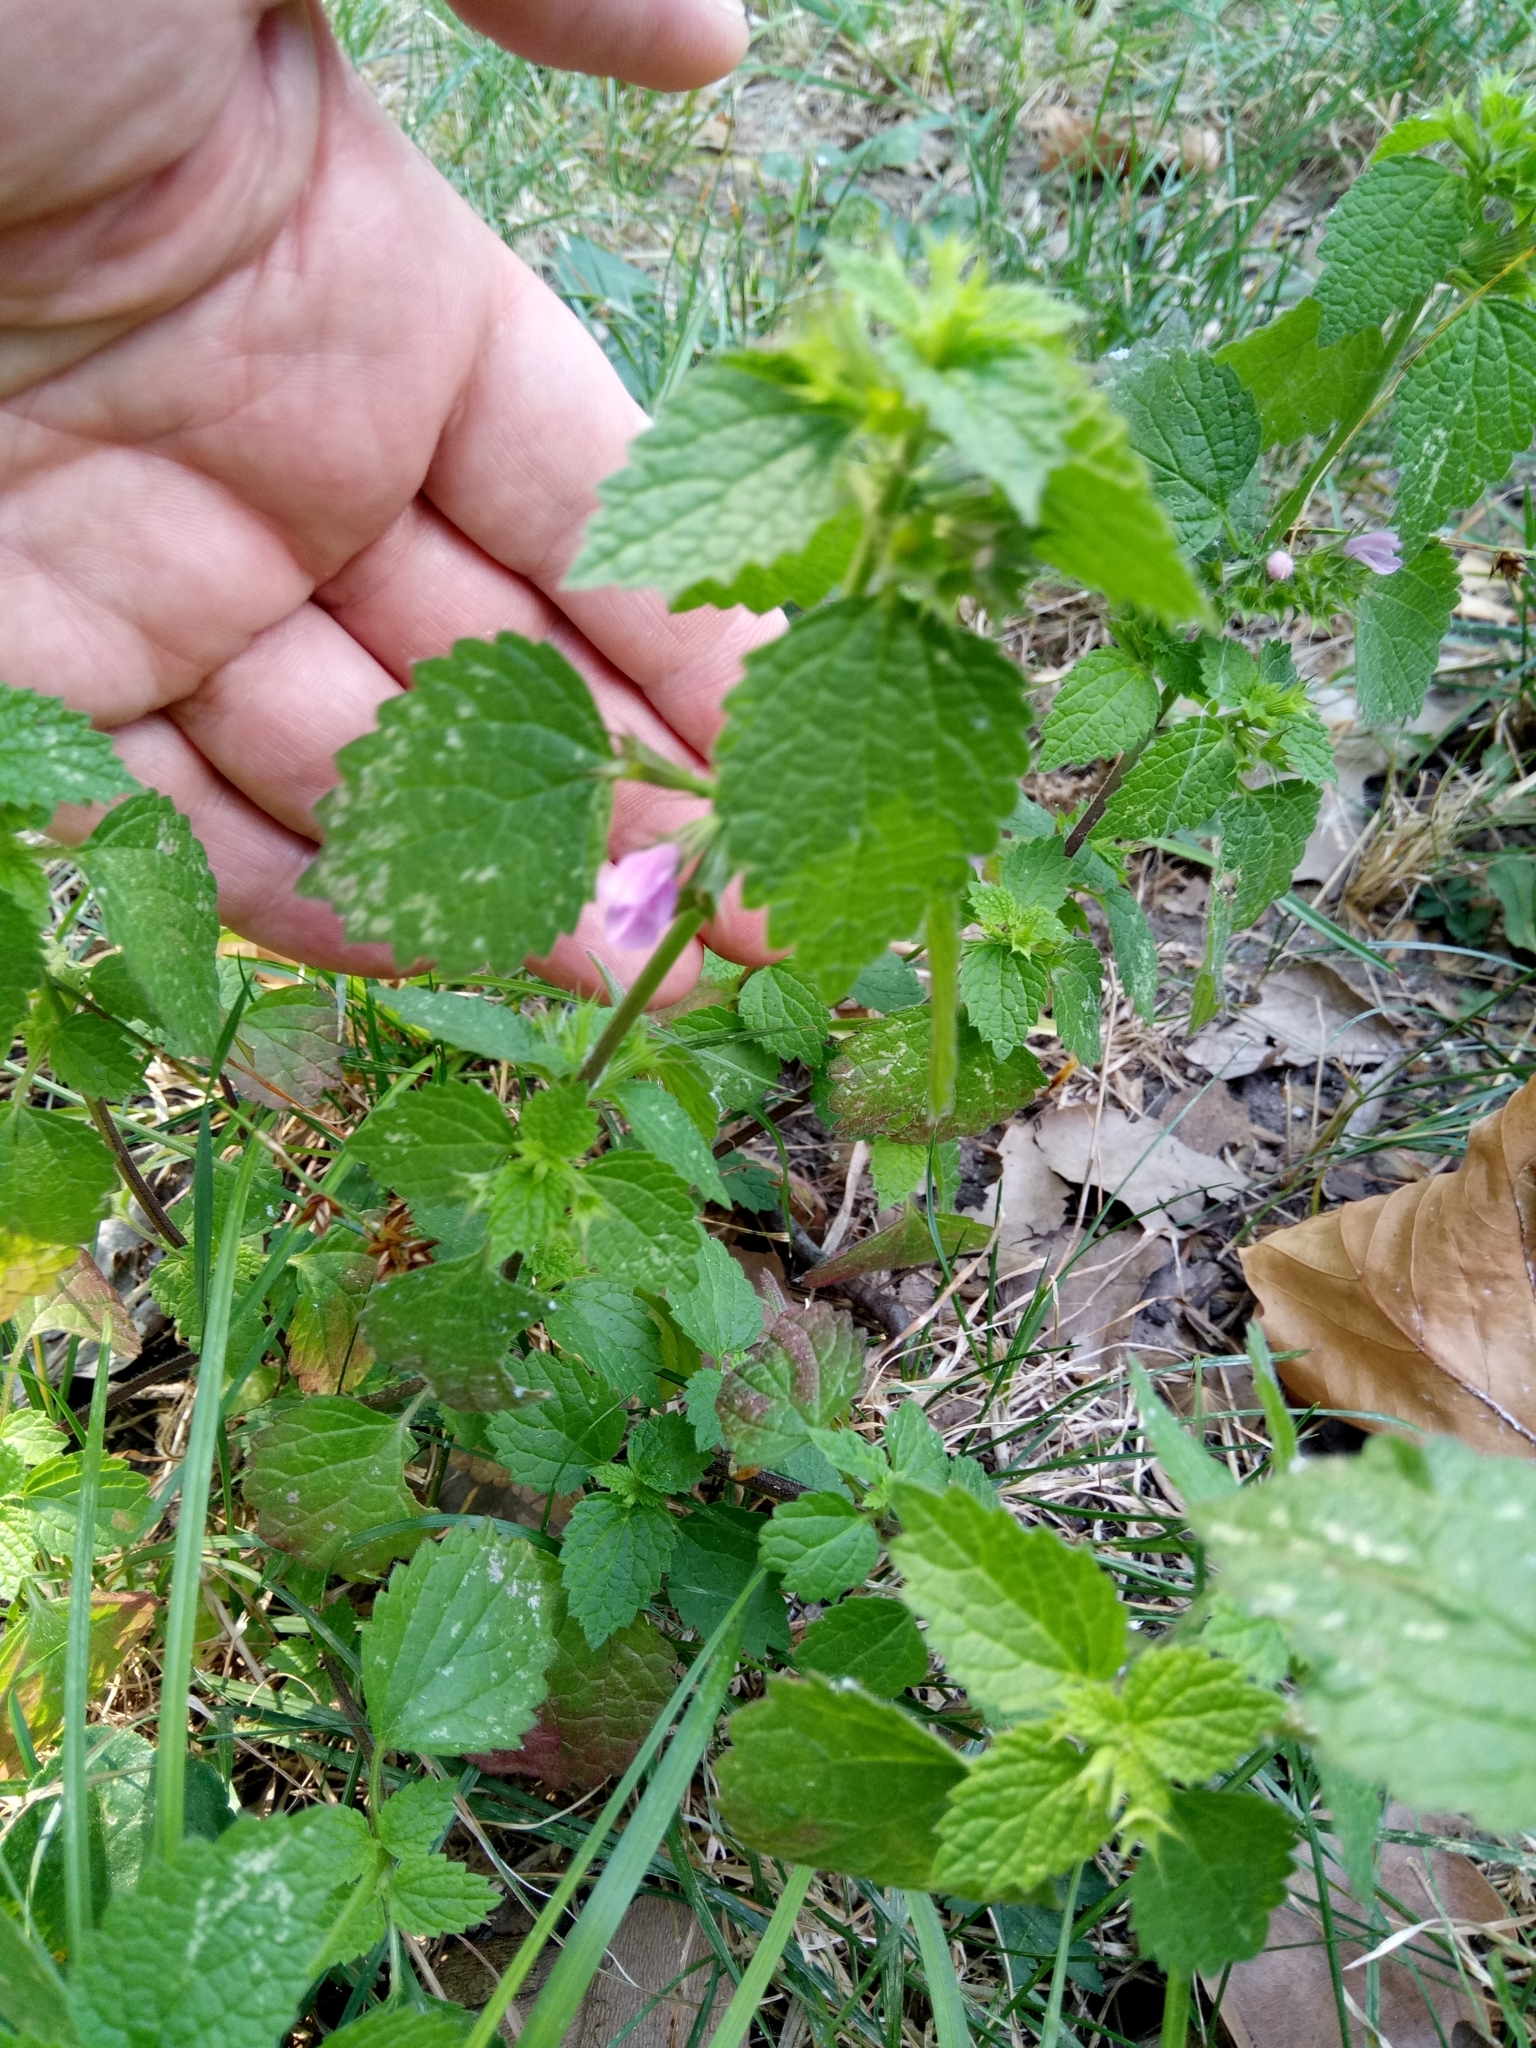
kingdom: Plantae
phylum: Tracheophyta
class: Magnoliopsida
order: Lamiales
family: Lamiaceae
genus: Ballota
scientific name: Ballota nigra
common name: Black horehound
